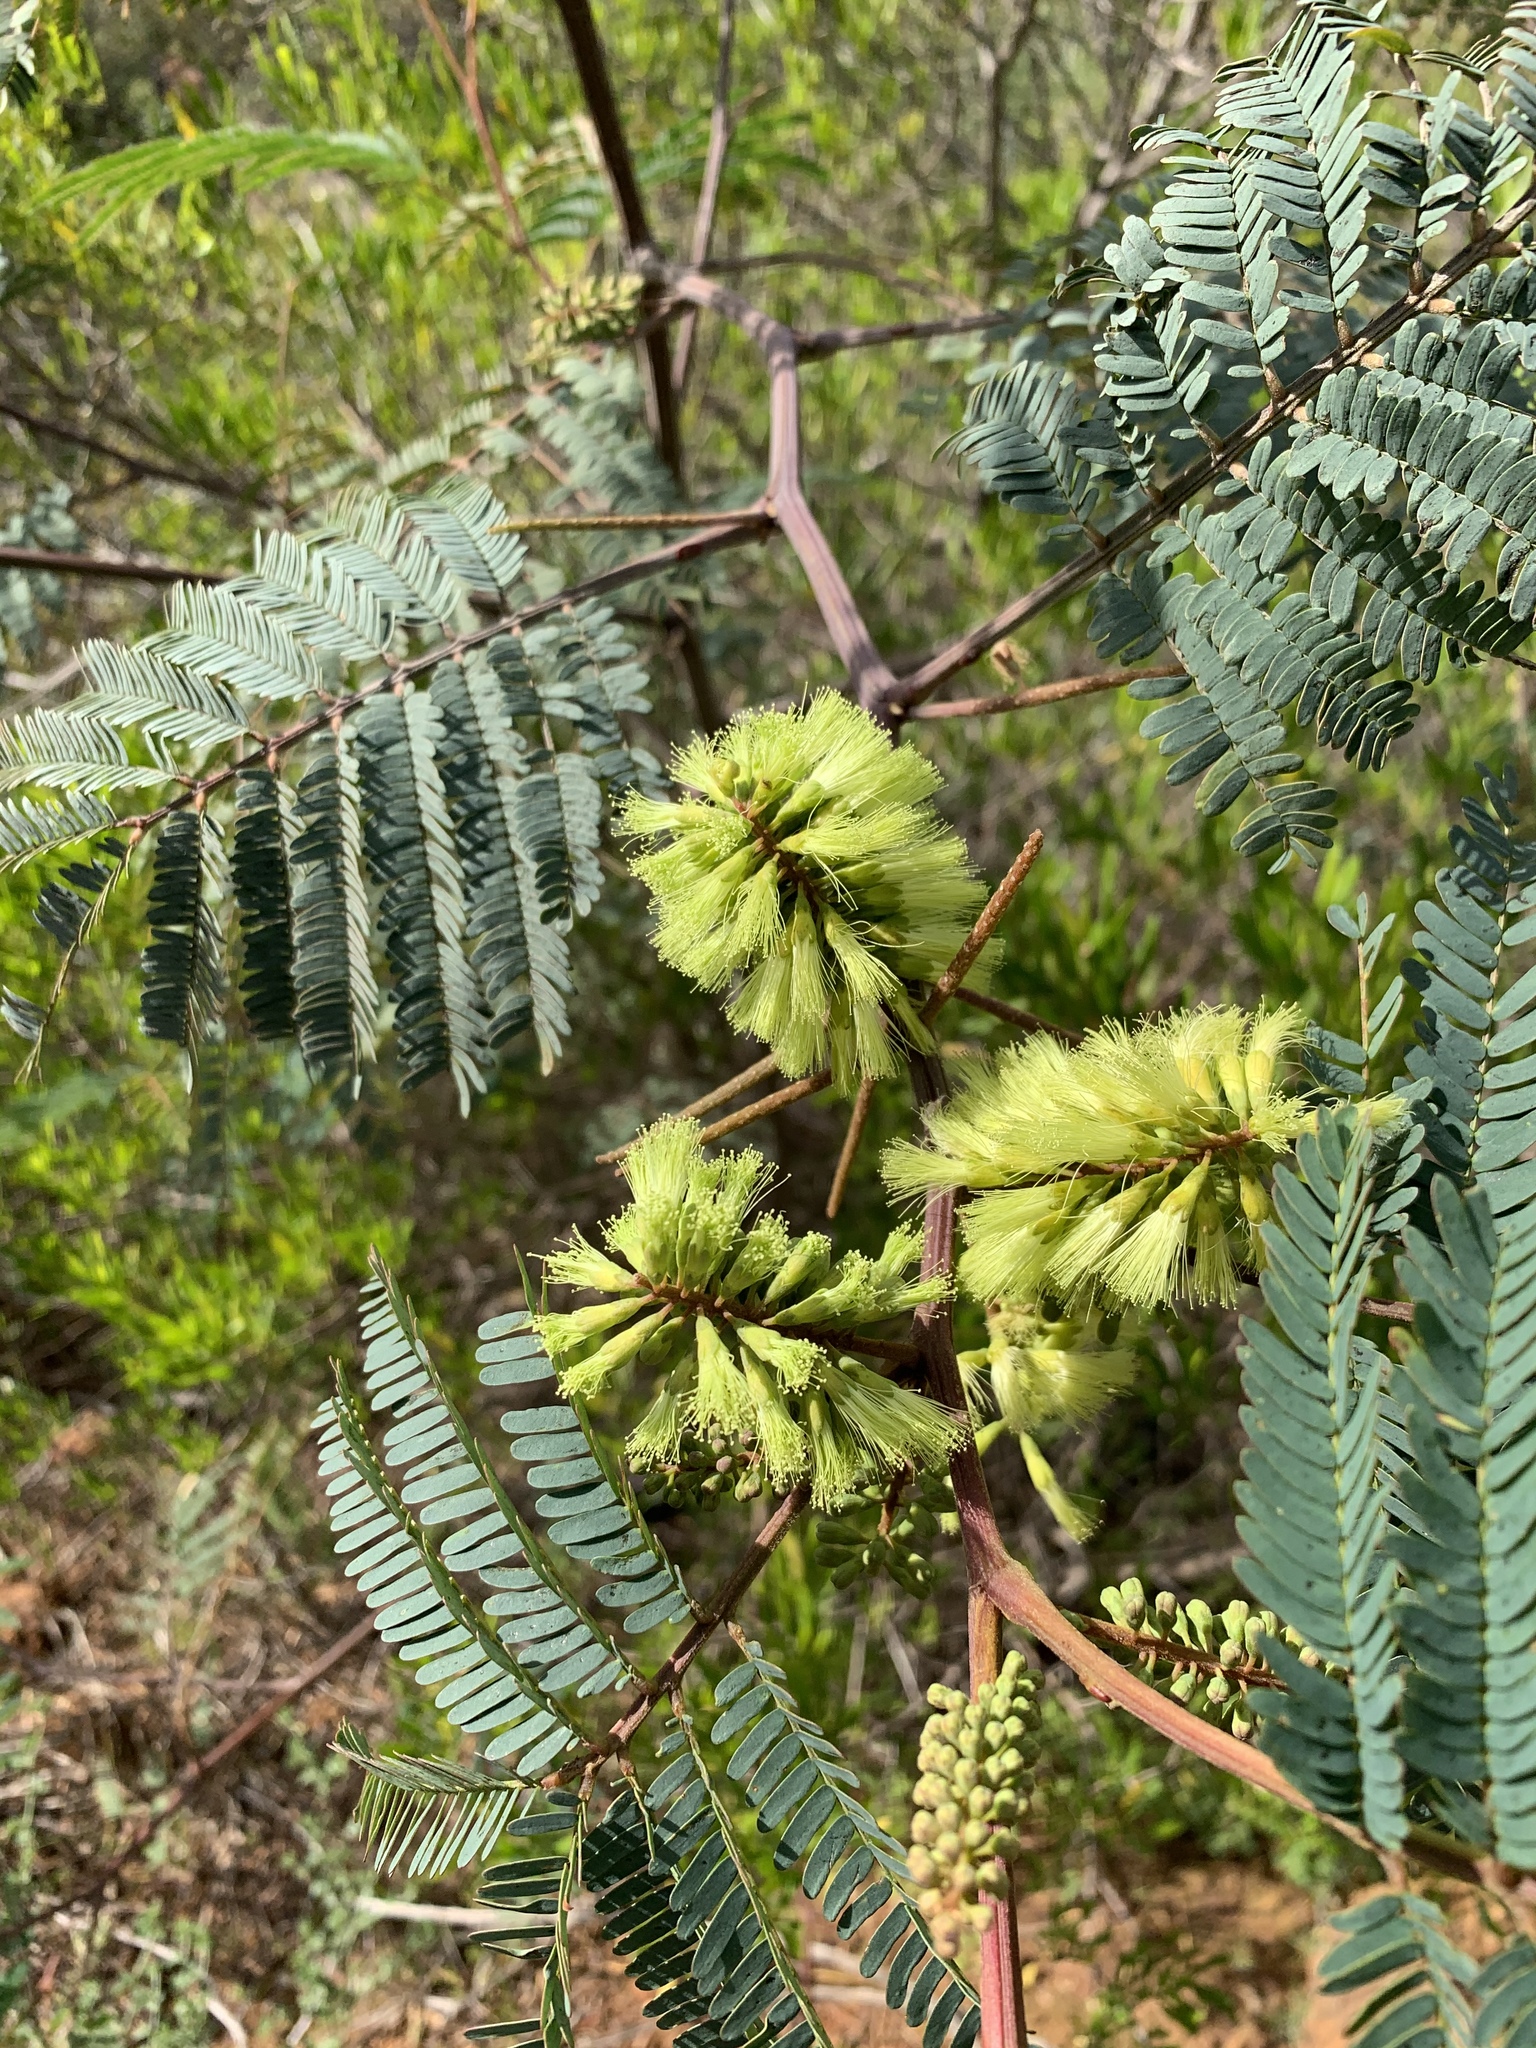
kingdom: Plantae
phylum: Tracheophyta
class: Magnoliopsida
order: Fabales
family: Fabaceae
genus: Paraserianthes
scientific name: Paraserianthes lophantha
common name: Plume albizia
